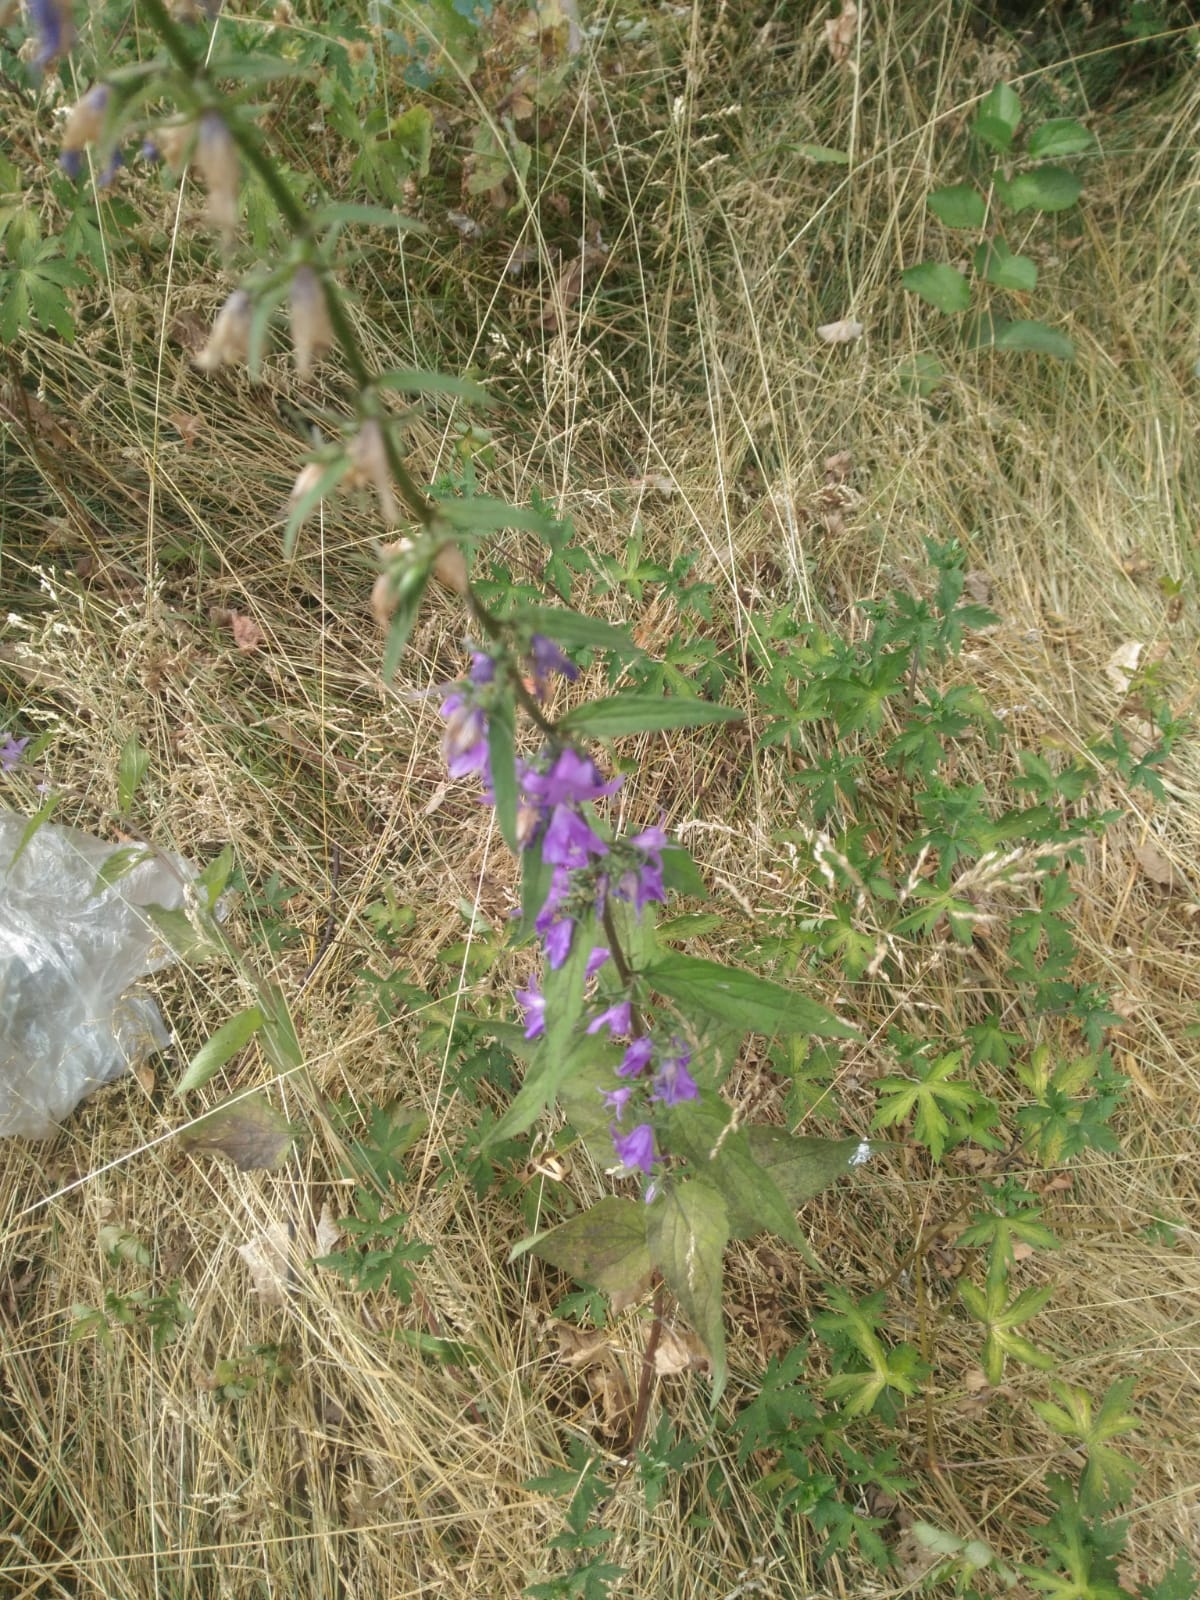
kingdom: Plantae
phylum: Tracheophyta
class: Magnoliopsida
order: Asterales
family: Campanulaceae
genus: Campanula
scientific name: Campanula rapunculoides
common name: Creeping bellflower
